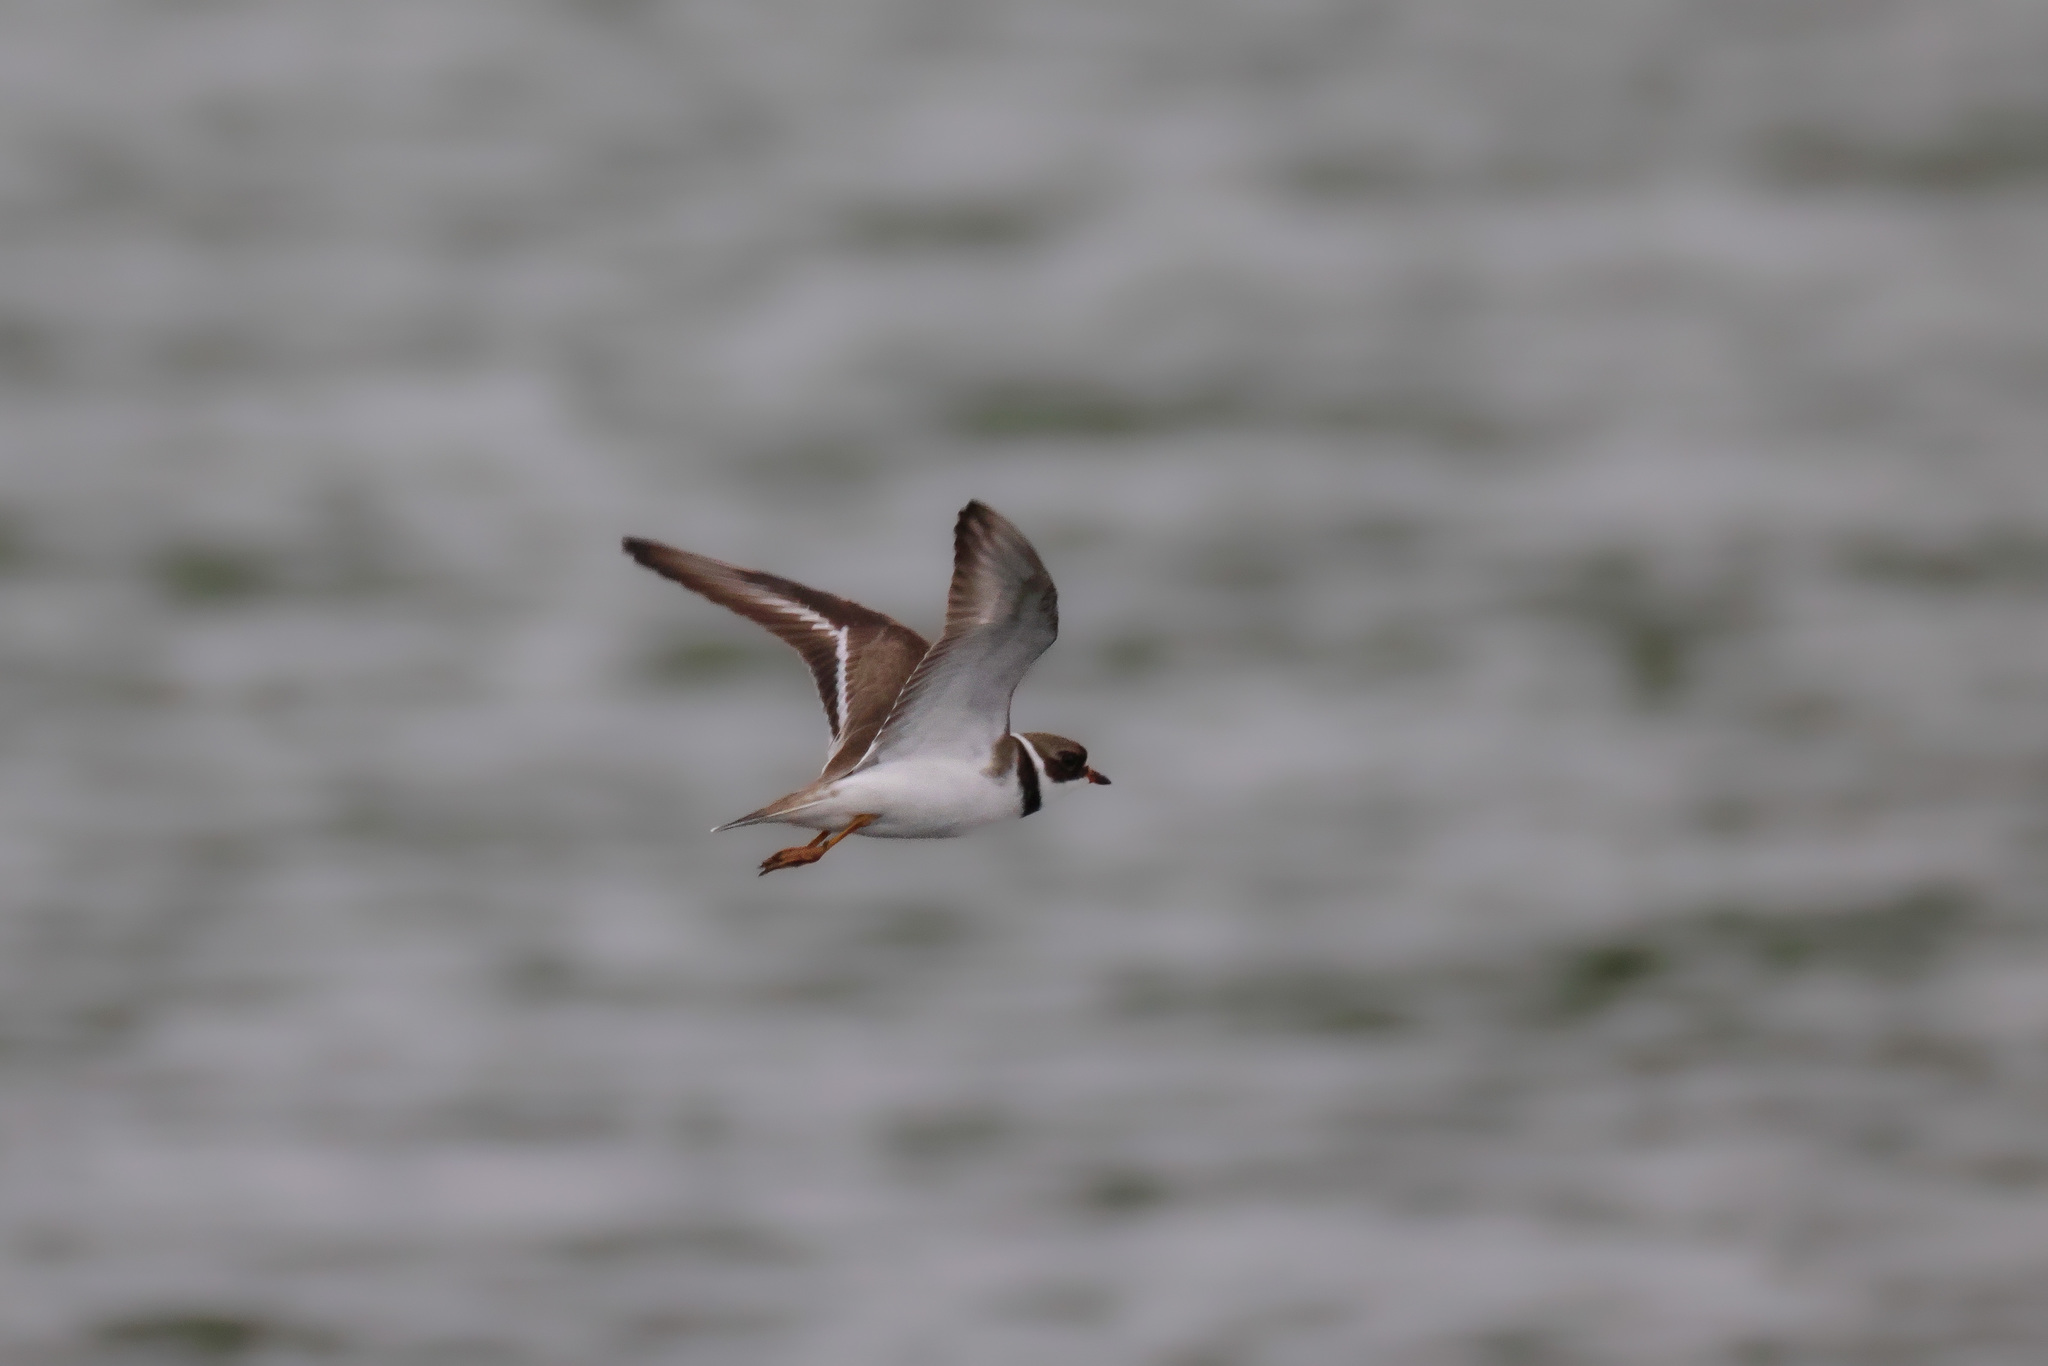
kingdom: Animalia
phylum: Chordata
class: Aves
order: Charadriiformes
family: Charadriidae
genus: Charadrius
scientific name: Charadrius semipalmatus
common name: Semipalmated plover
